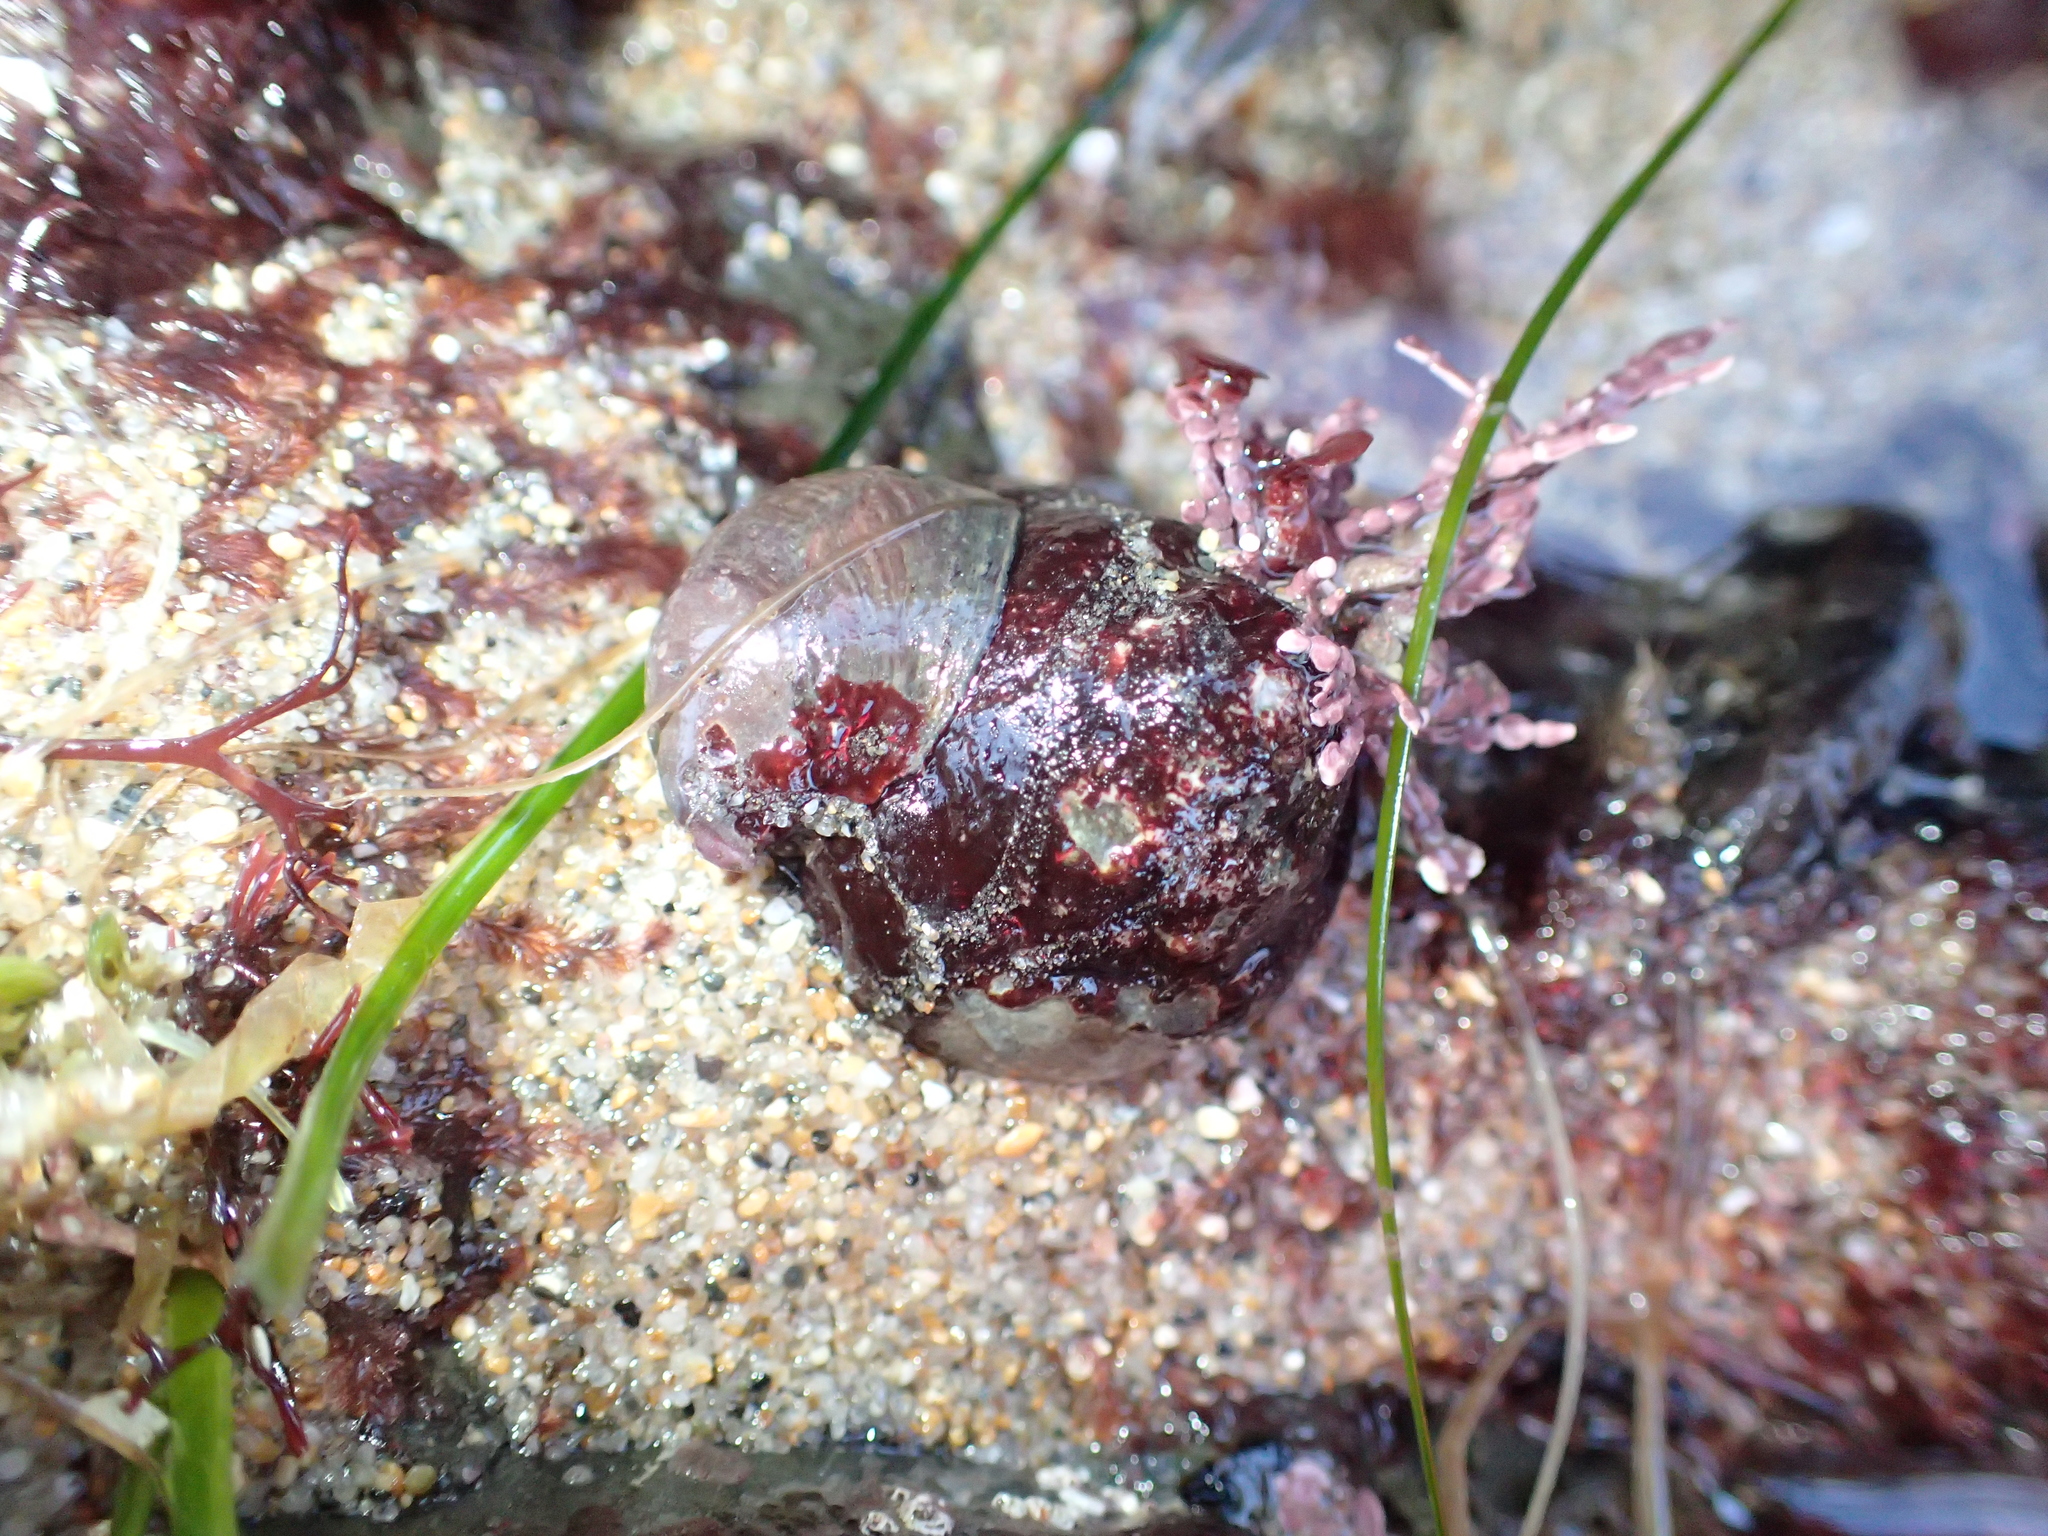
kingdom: Animalia
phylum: Mollusca
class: Gastropoda
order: Trochida
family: Tegulidae
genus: Tegula
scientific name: Tegula brunnea
